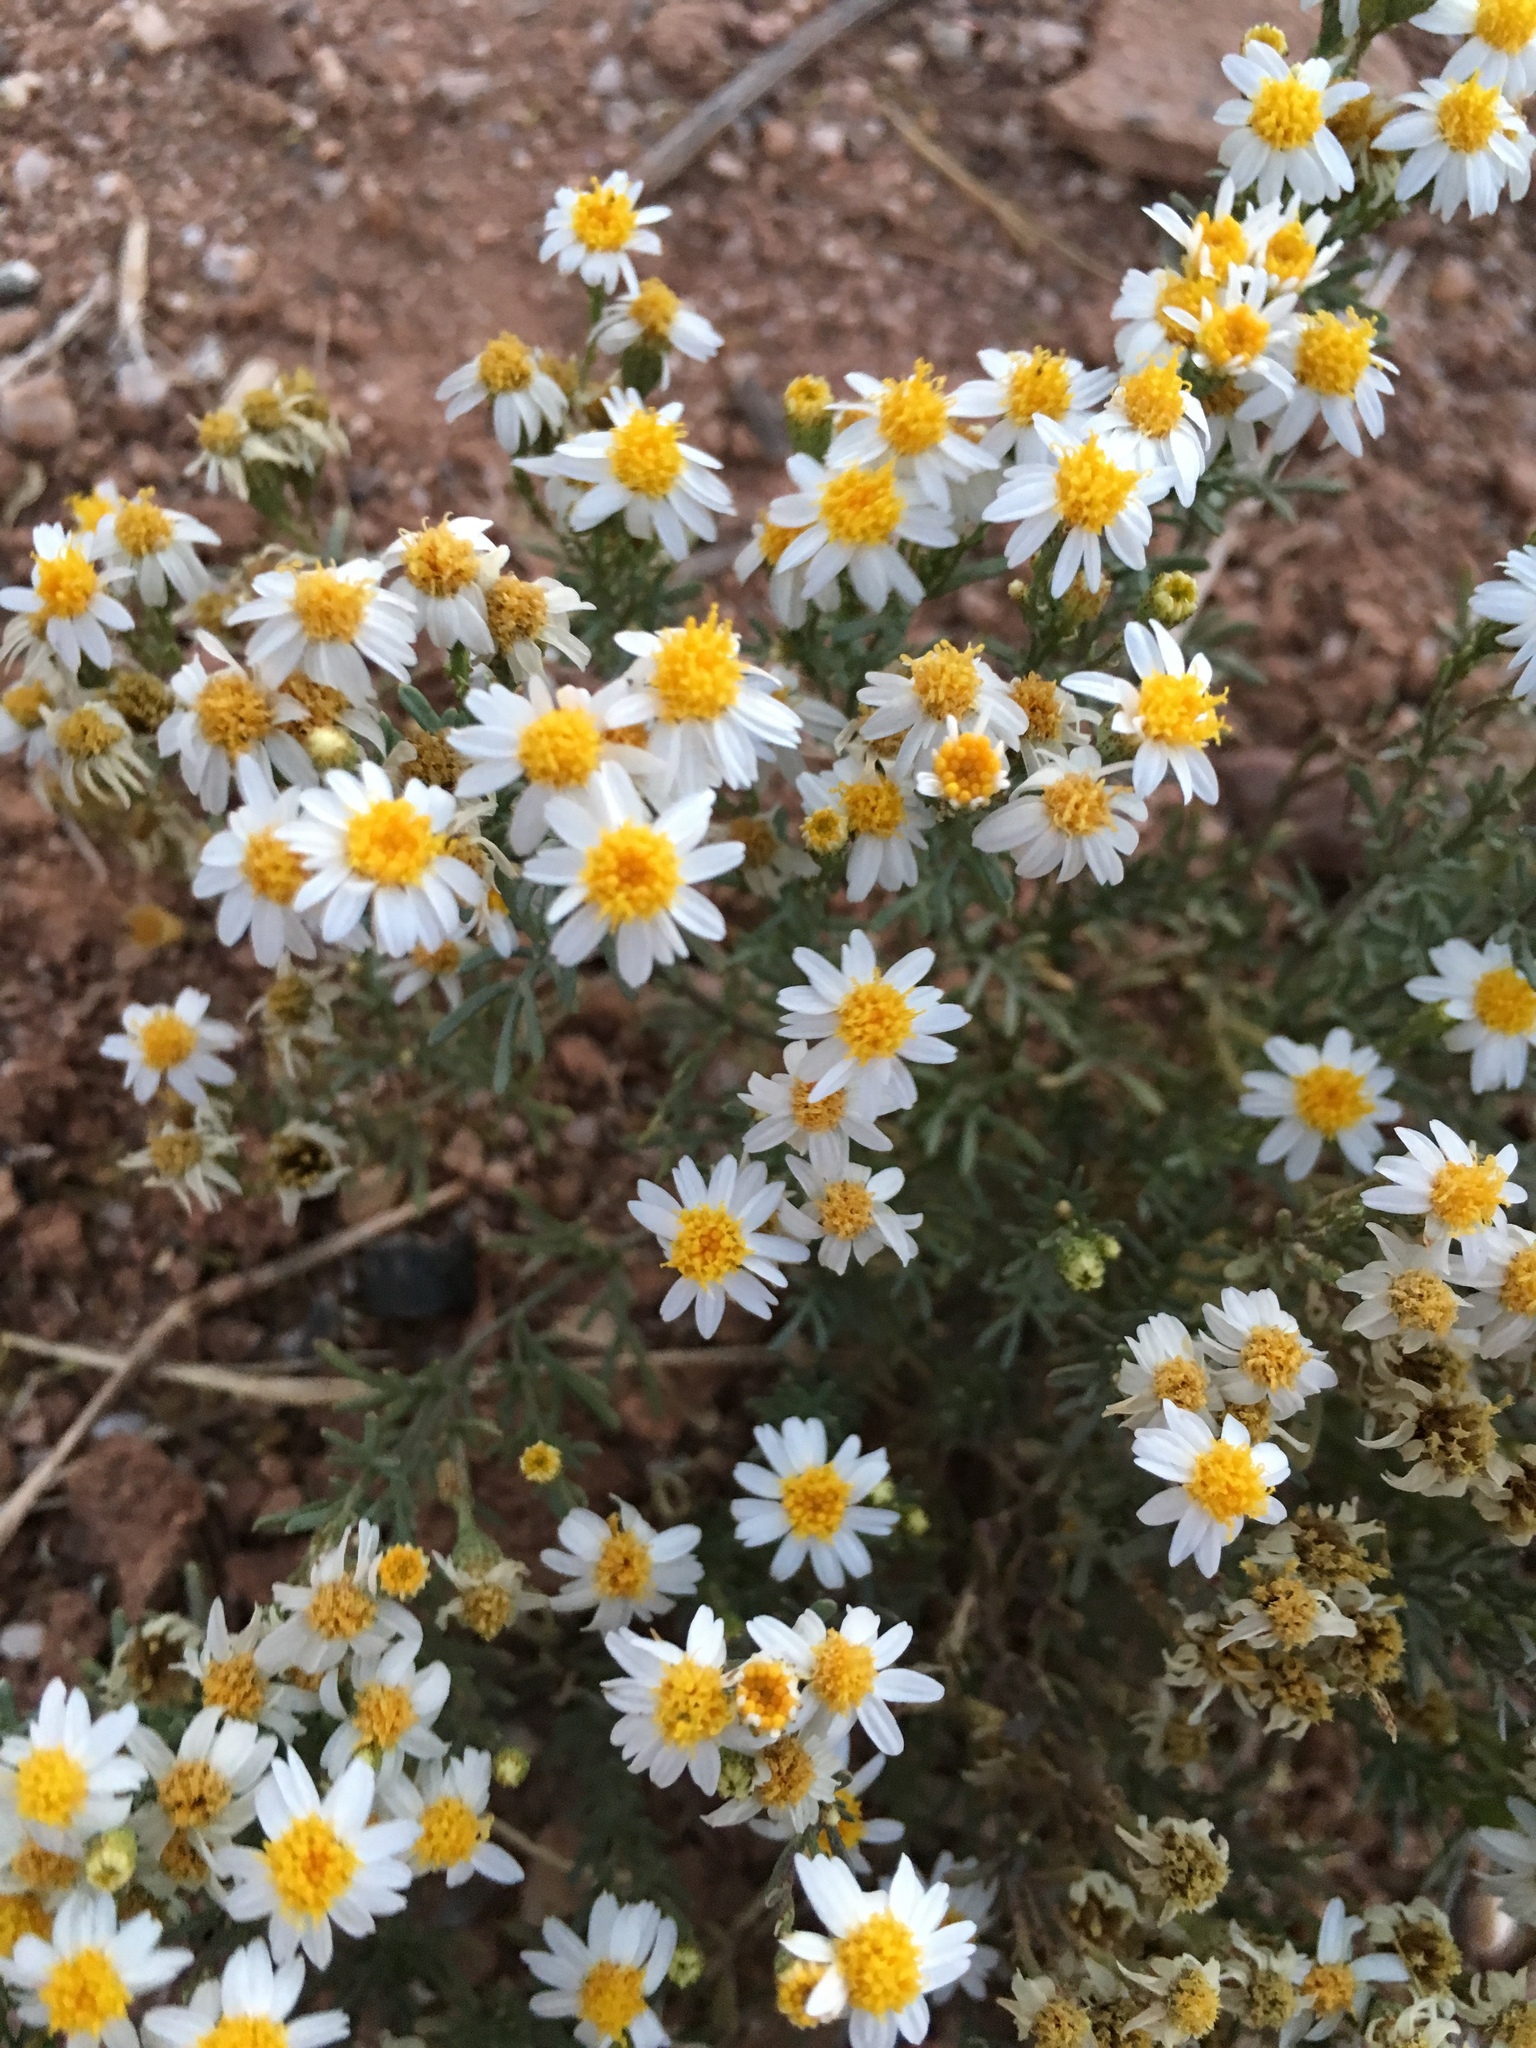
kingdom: Plantae
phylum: Tracheophyta
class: Magnoliopsida
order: Asterales
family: Asteraceae
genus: Thymophylla
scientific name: Thymophylla concinna
